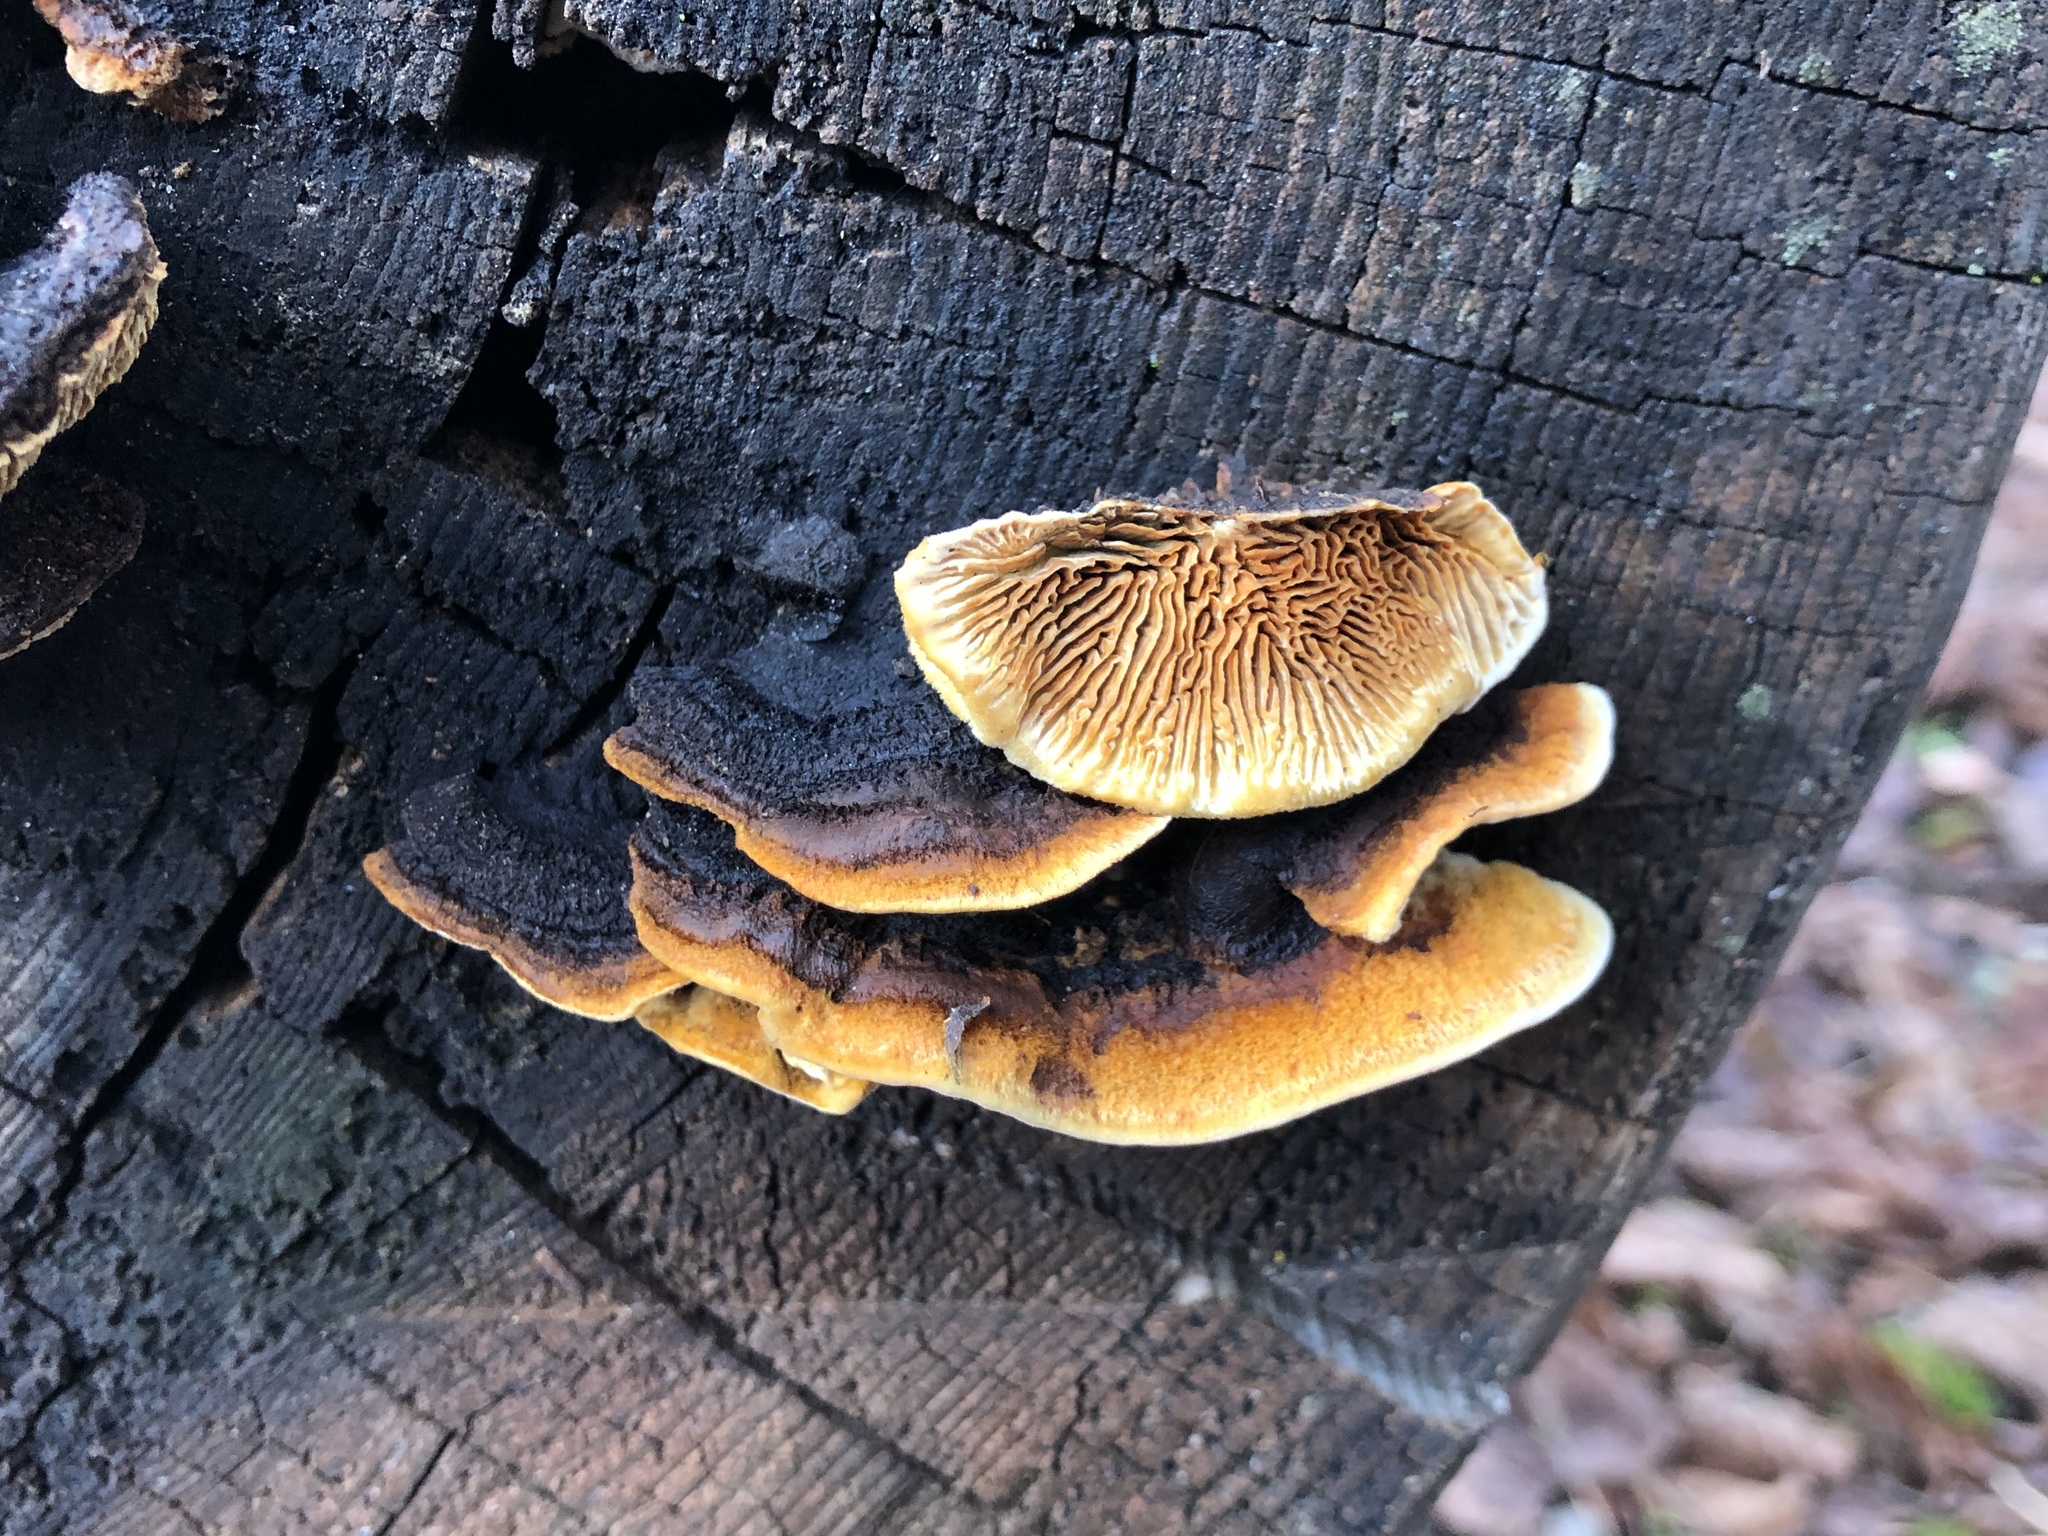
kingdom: Fungi
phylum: Basidiomycota
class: Agaricomycetes
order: Gloeophyllales
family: Gloeophyllaceae
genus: Gloeophyllum
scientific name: Gloeophyllum sepiarium
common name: Conifer mazegill
